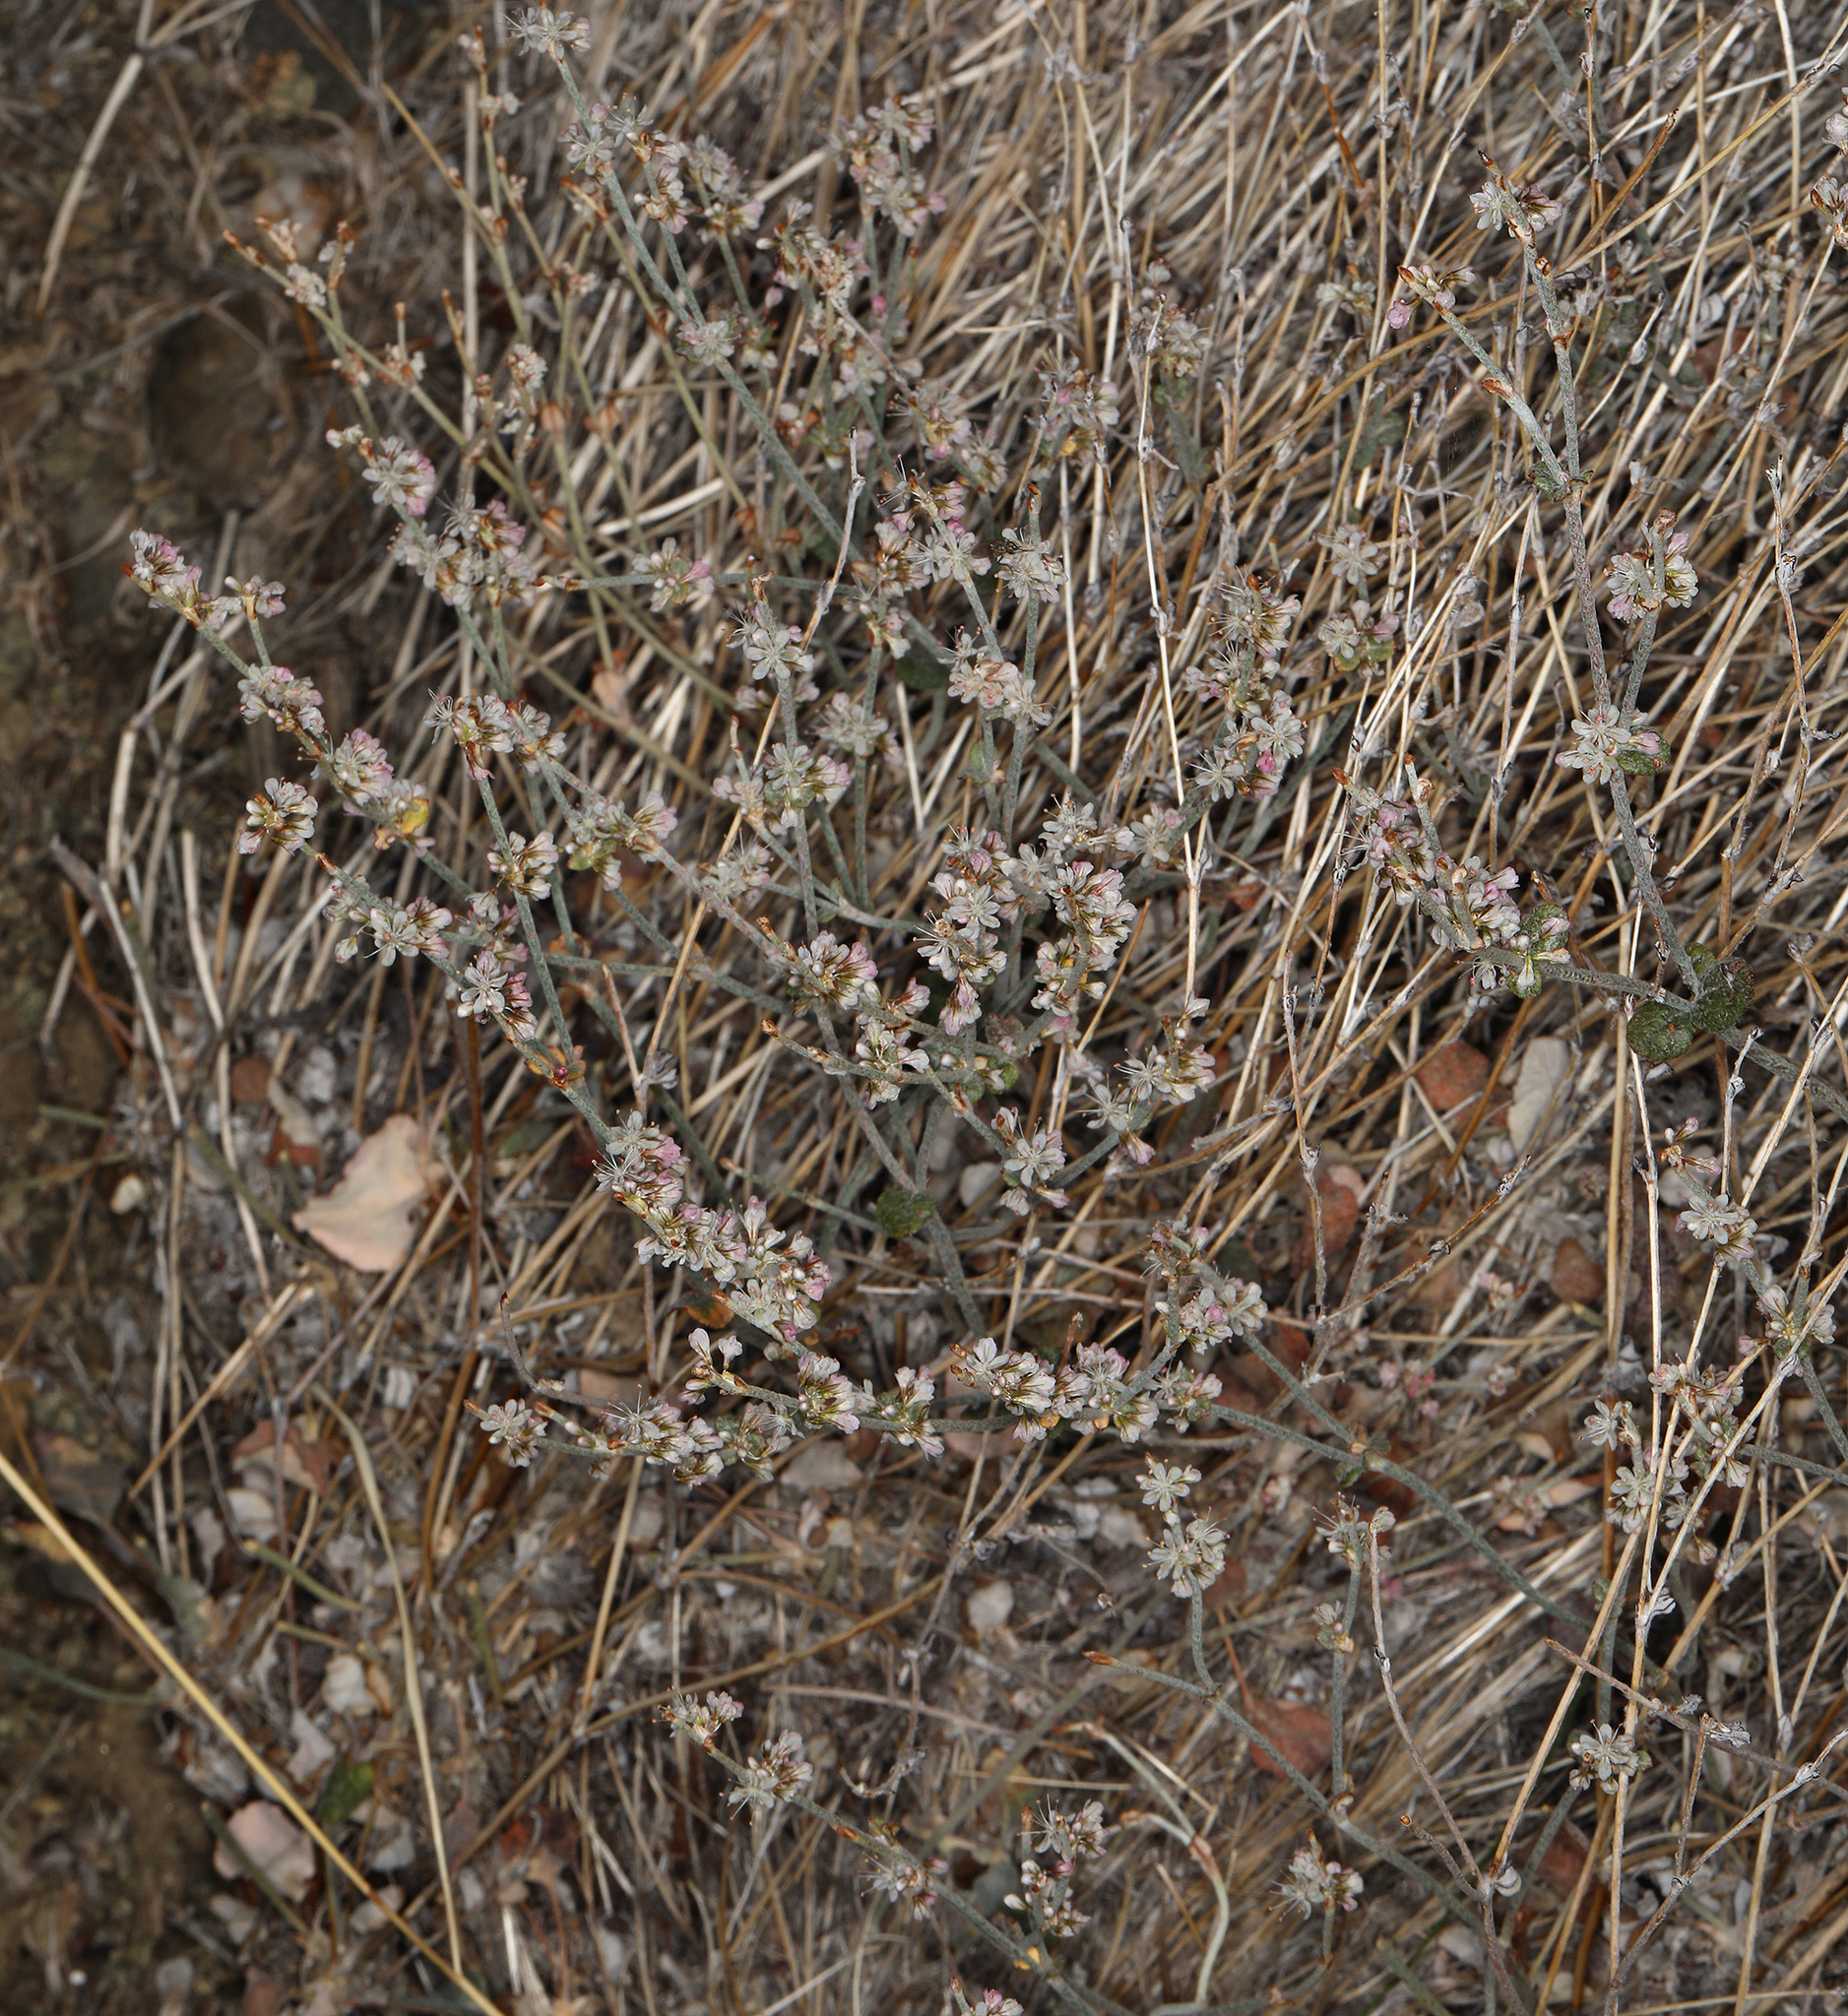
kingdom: Plantae
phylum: Tracheophyta
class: Magnoliopsida
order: Caryophyllales
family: Polygonaceae
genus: Eriogonum
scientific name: Eriogonum panamintense
